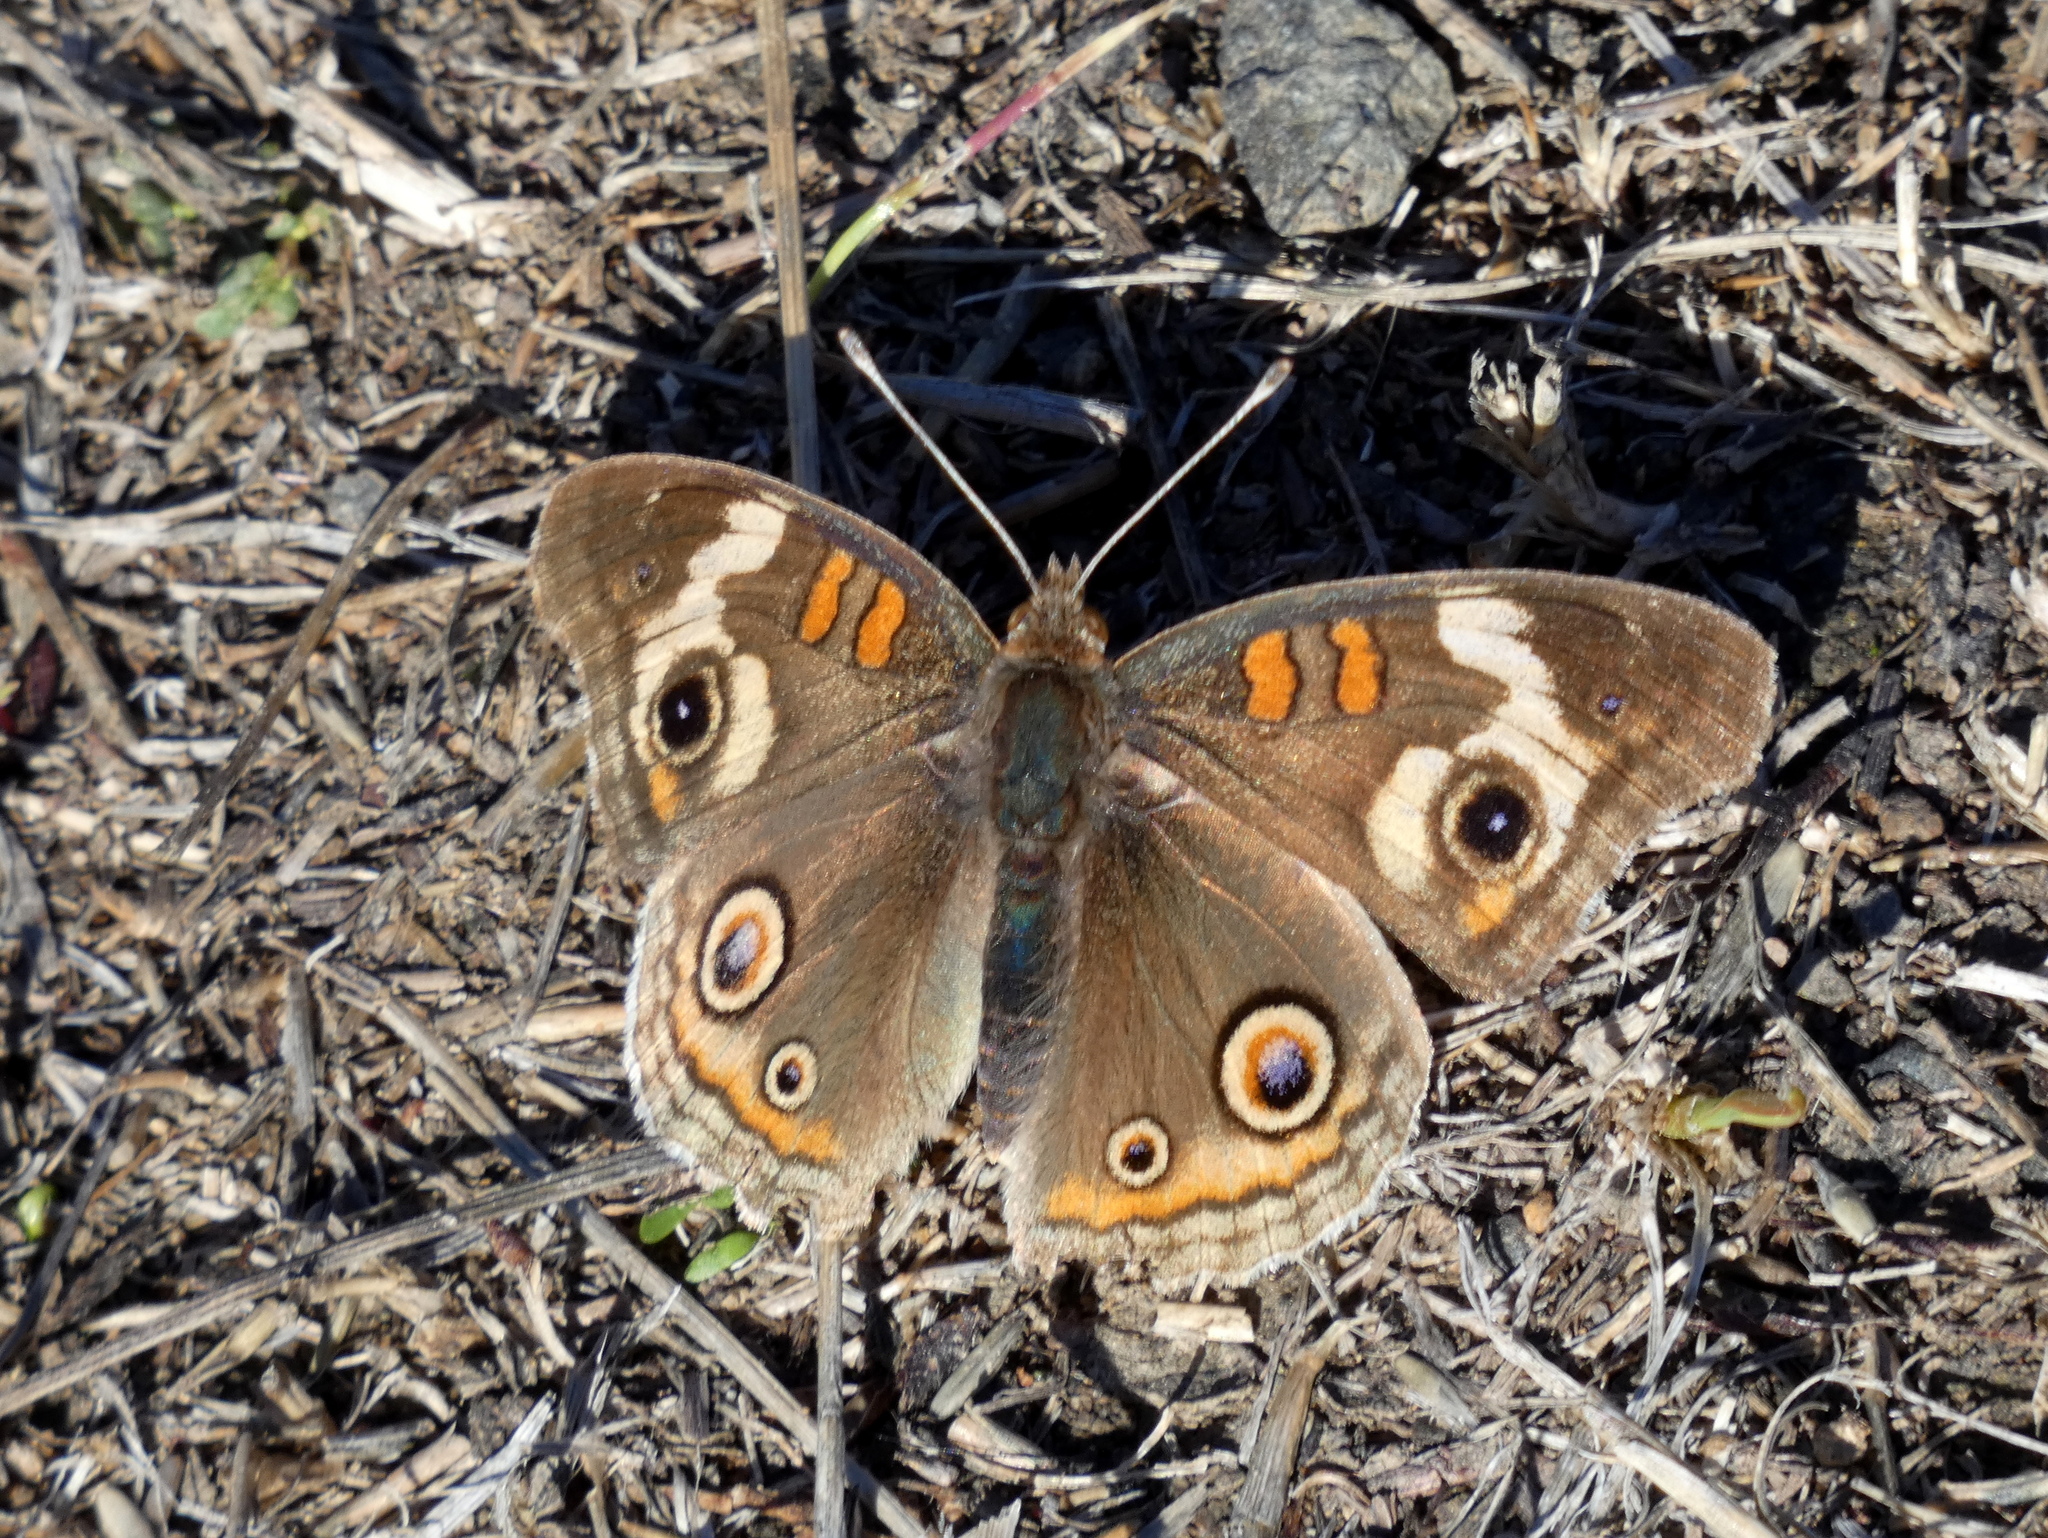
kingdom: Animalia
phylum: Arthropoda
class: Insecta
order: Lepidoptera
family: Nymphalidae
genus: Junonia
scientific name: Junonia grisea
